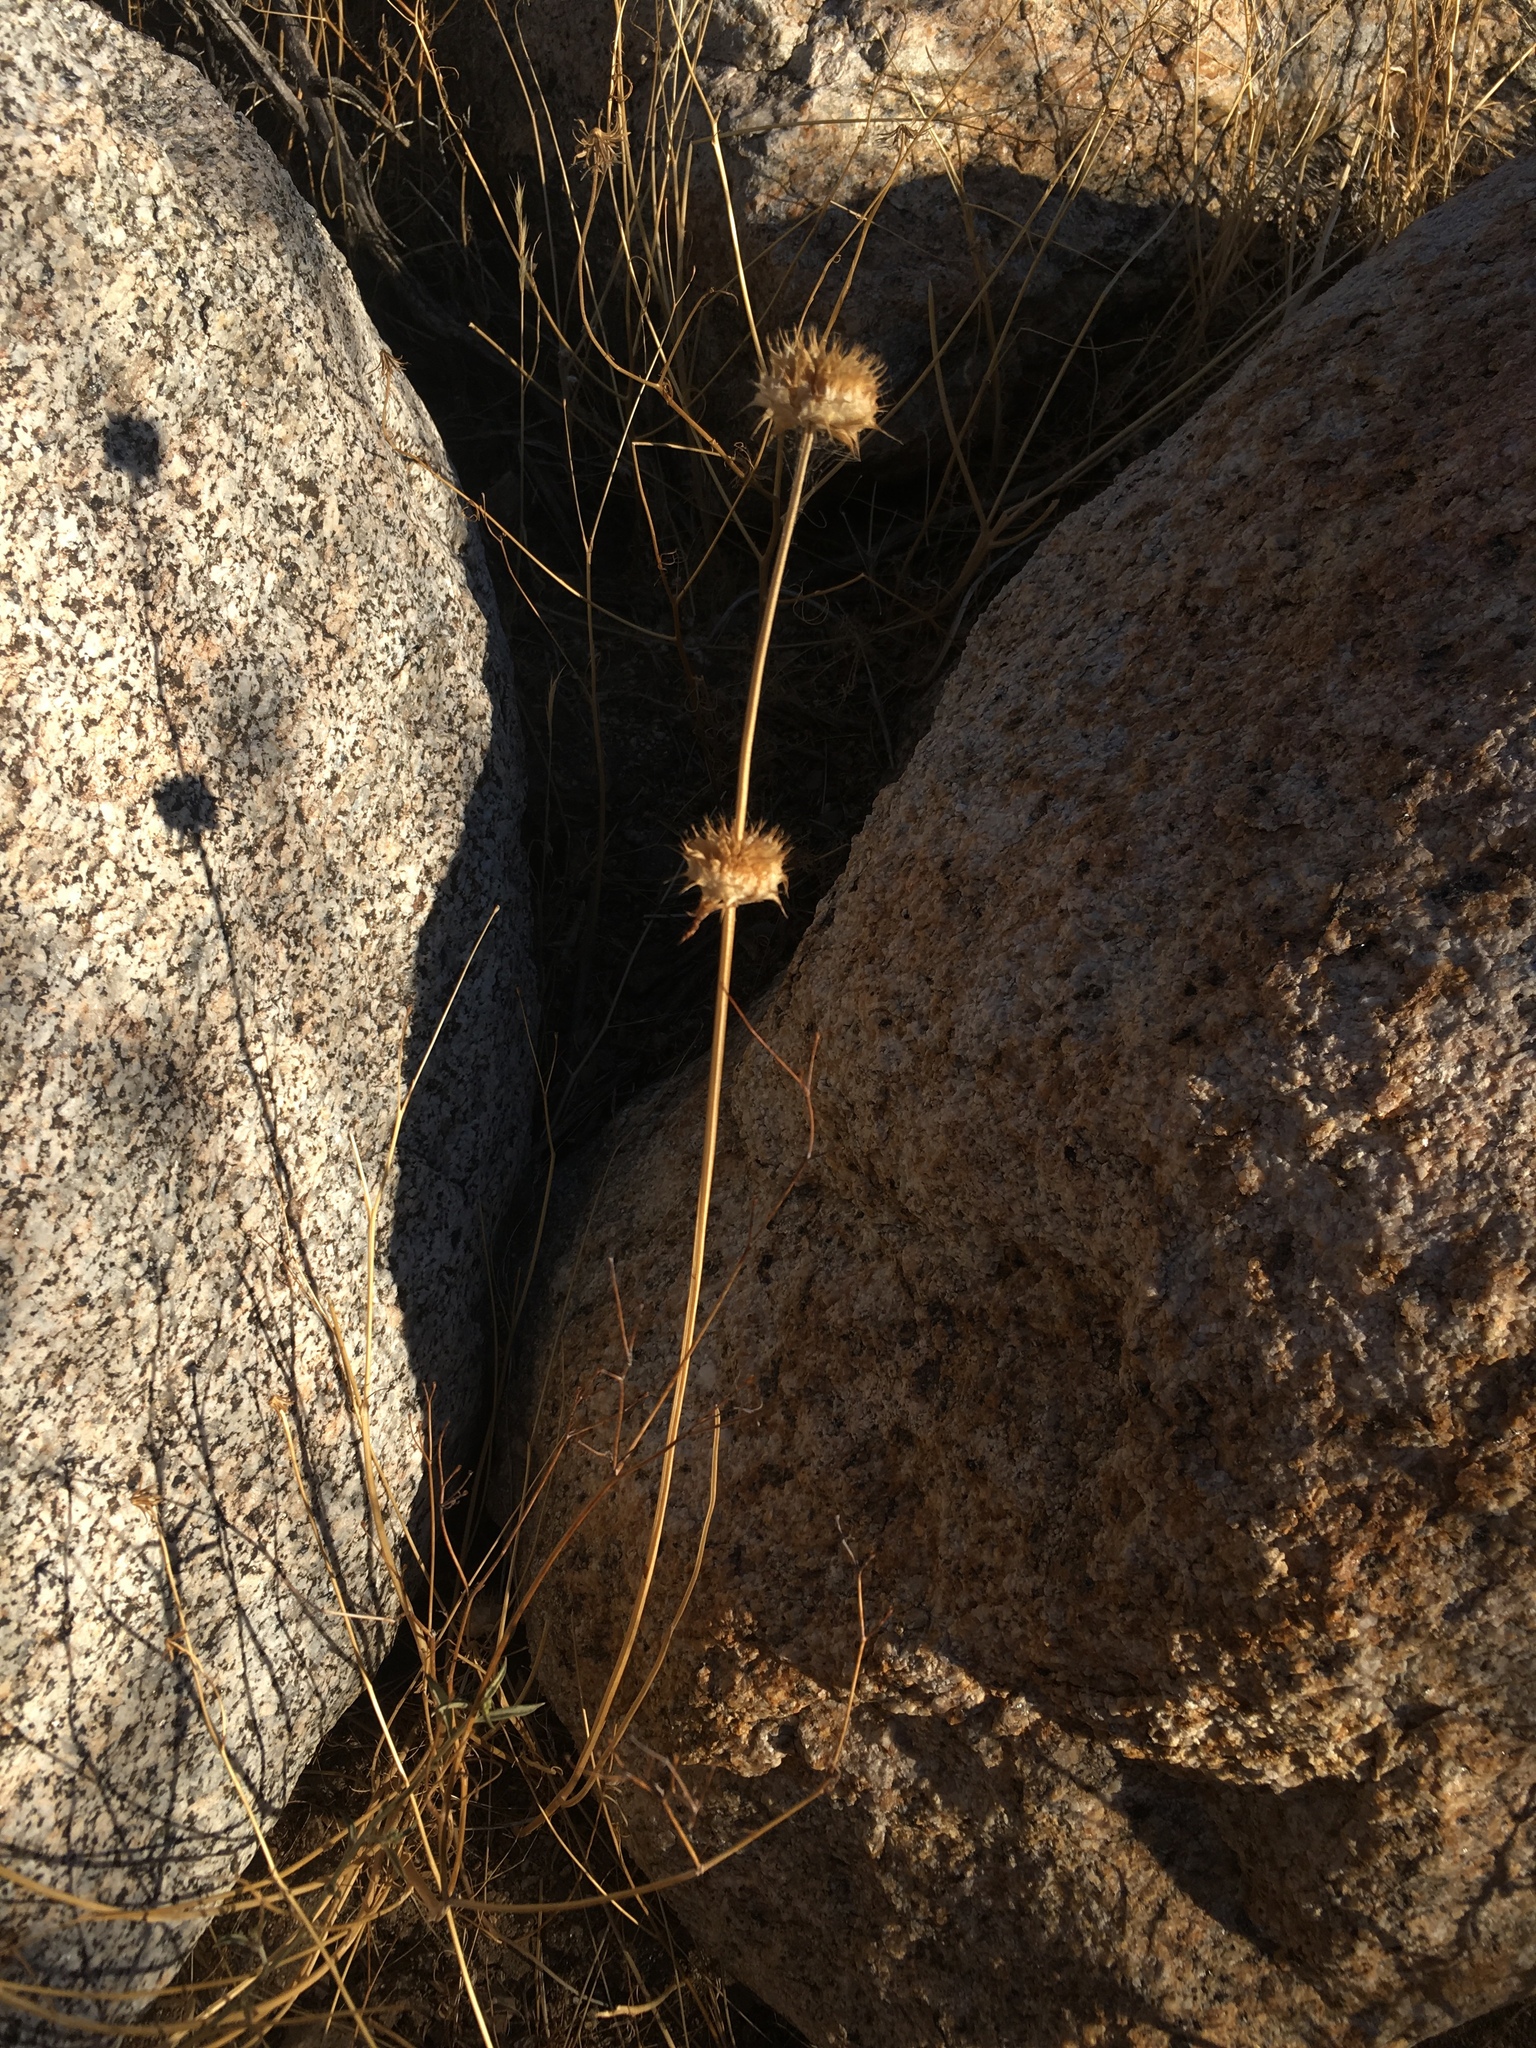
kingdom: Plantae
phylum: Tracheophyta
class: Magnoliopsida
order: Lamiales
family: Lamiaceae
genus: Salvia
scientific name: Salvia columbariae
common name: Chia
